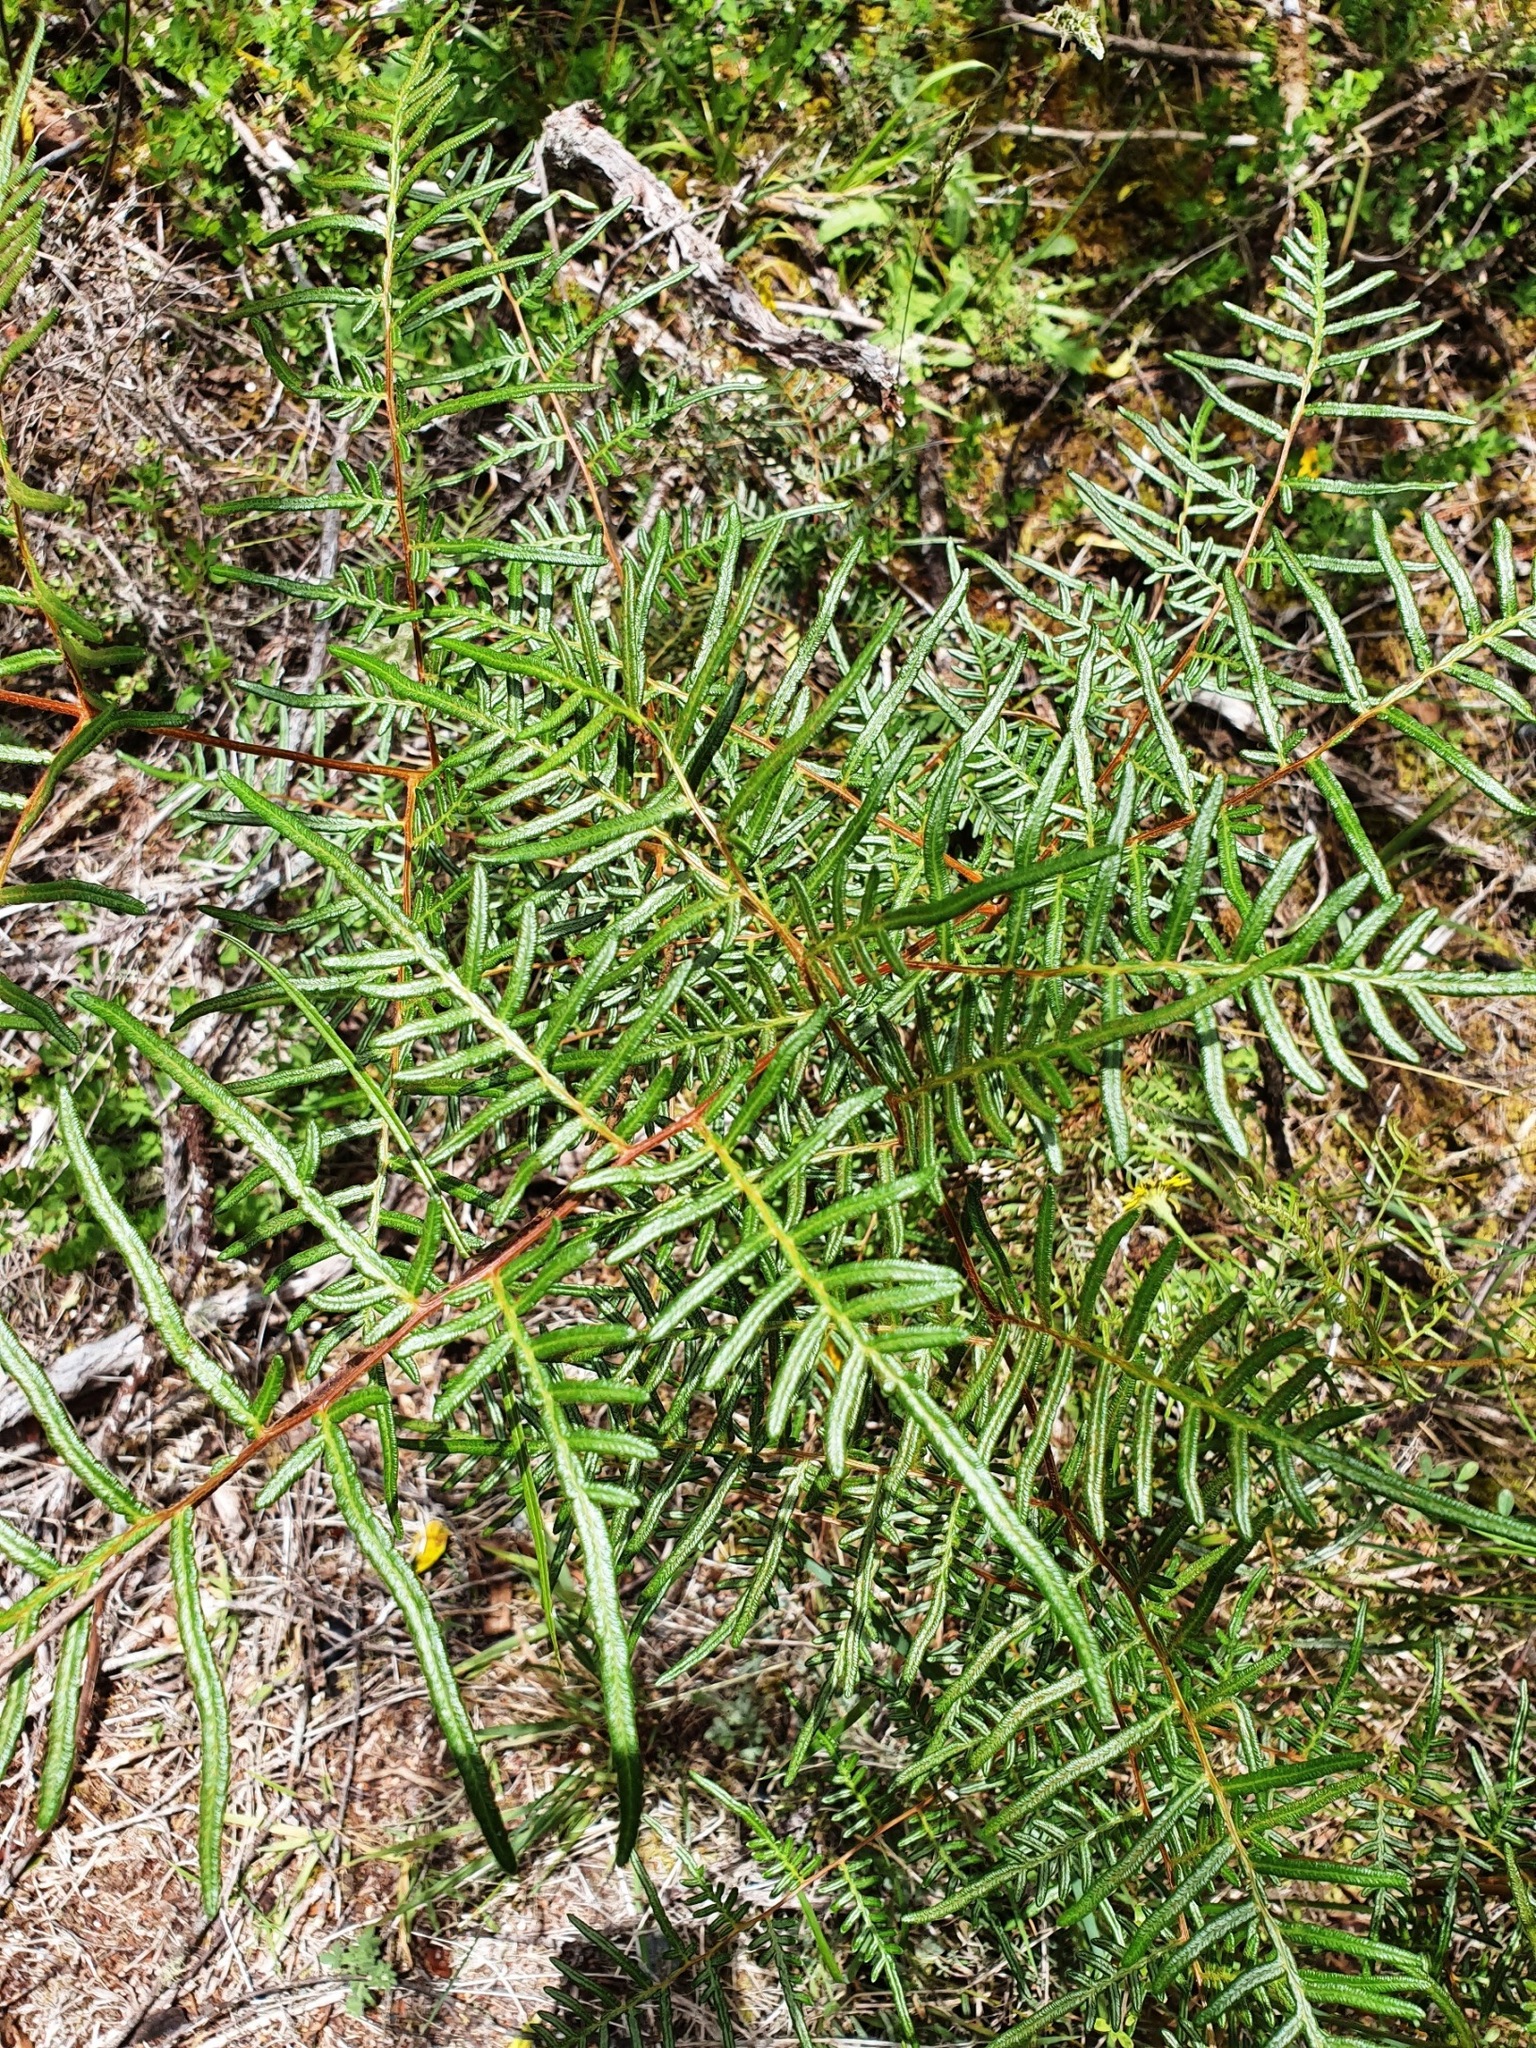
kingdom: Plantae
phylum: Tracheophyta
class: Polypodiopsida
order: Polypodiales
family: Dennstaedtiaceae
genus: Pteridium
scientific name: Pteridium esculentum
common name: Bracken fern
